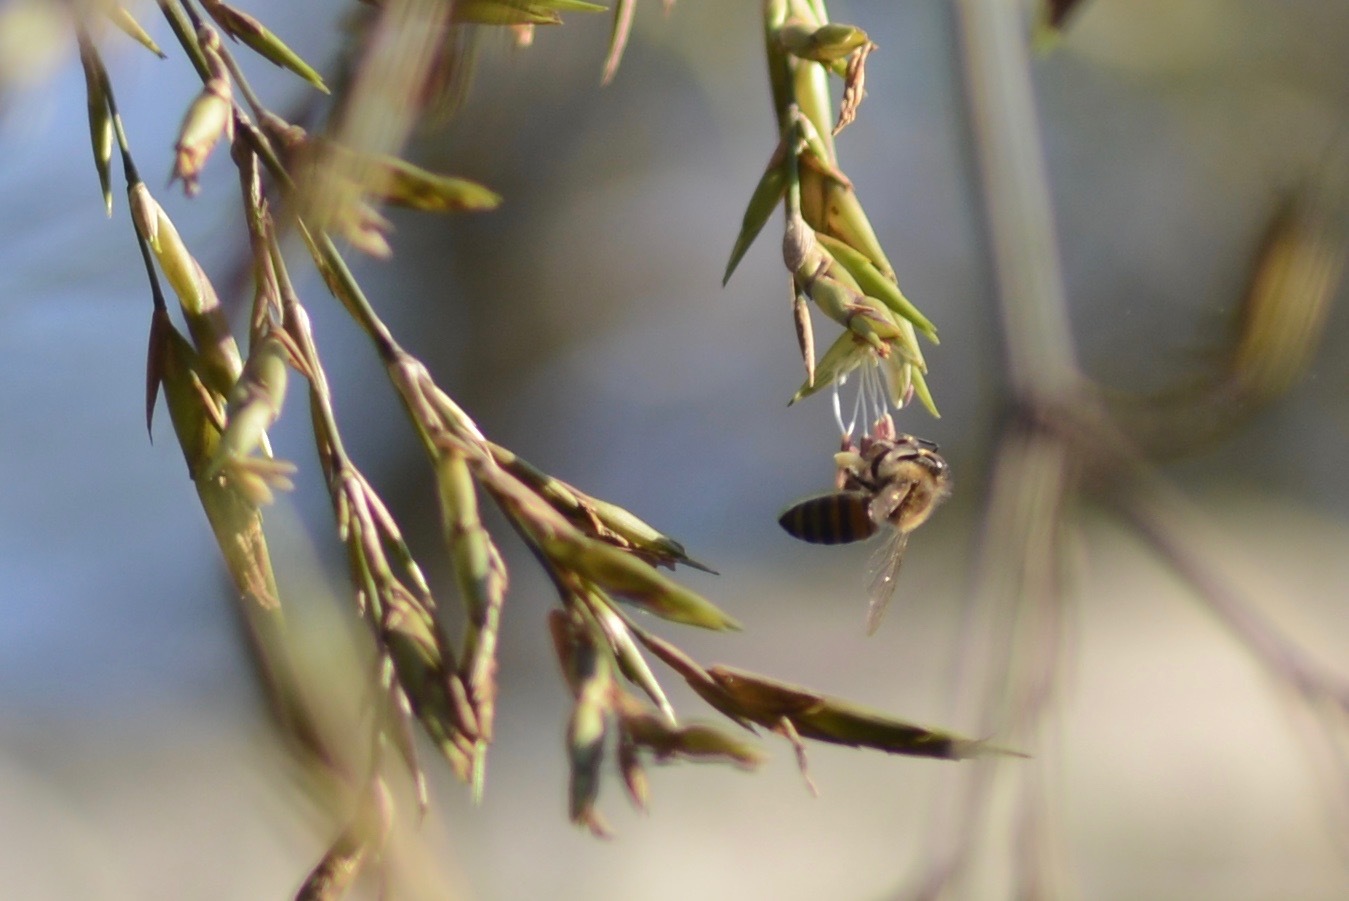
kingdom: Animalia
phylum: Arthropoda
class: Insecta
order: Hymenoptera
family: Apidae
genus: Apis
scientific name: Apis mellifera
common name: Honey bee
